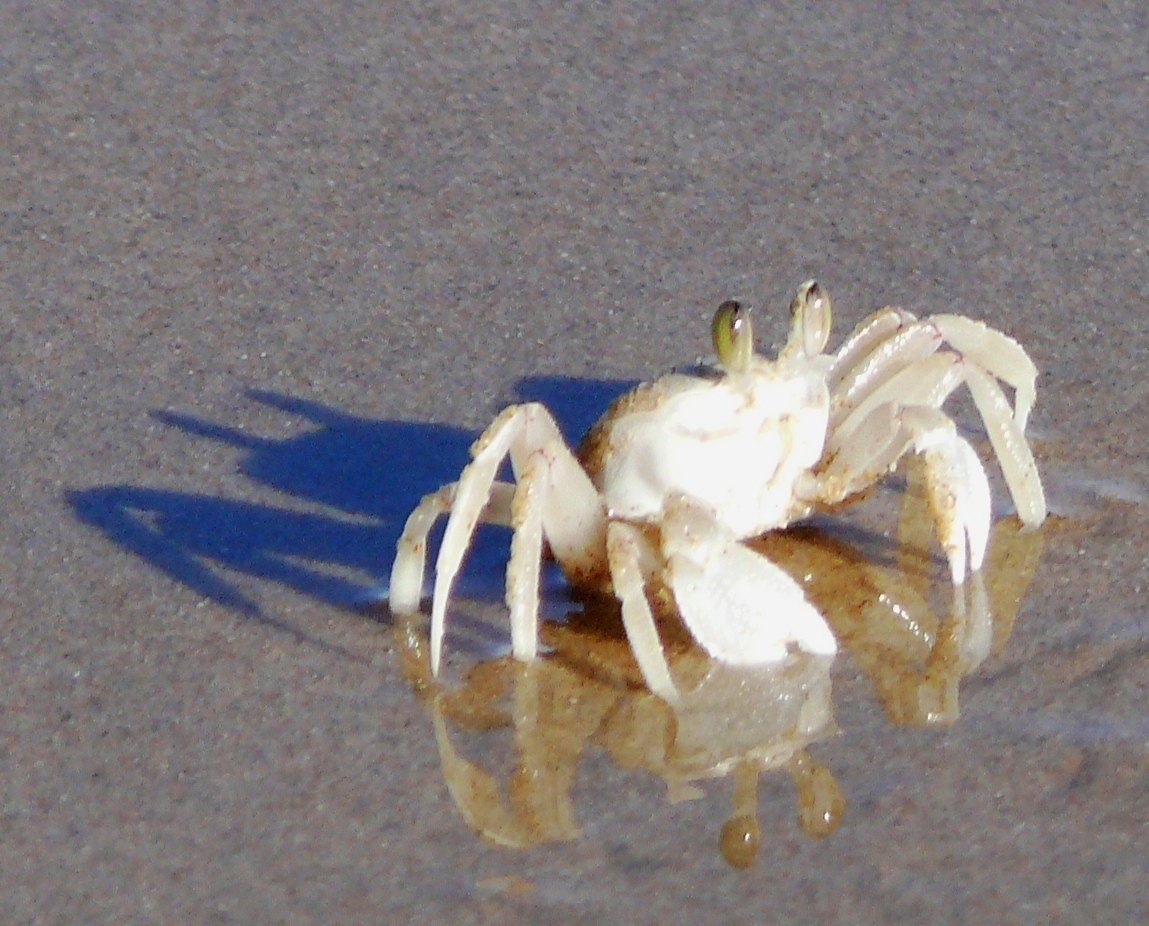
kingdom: Animalia
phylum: Arthropoda
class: Malacostraca
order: Decapoda
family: Ocypodidae
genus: Ocypode
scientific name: Ocypode ryderi
